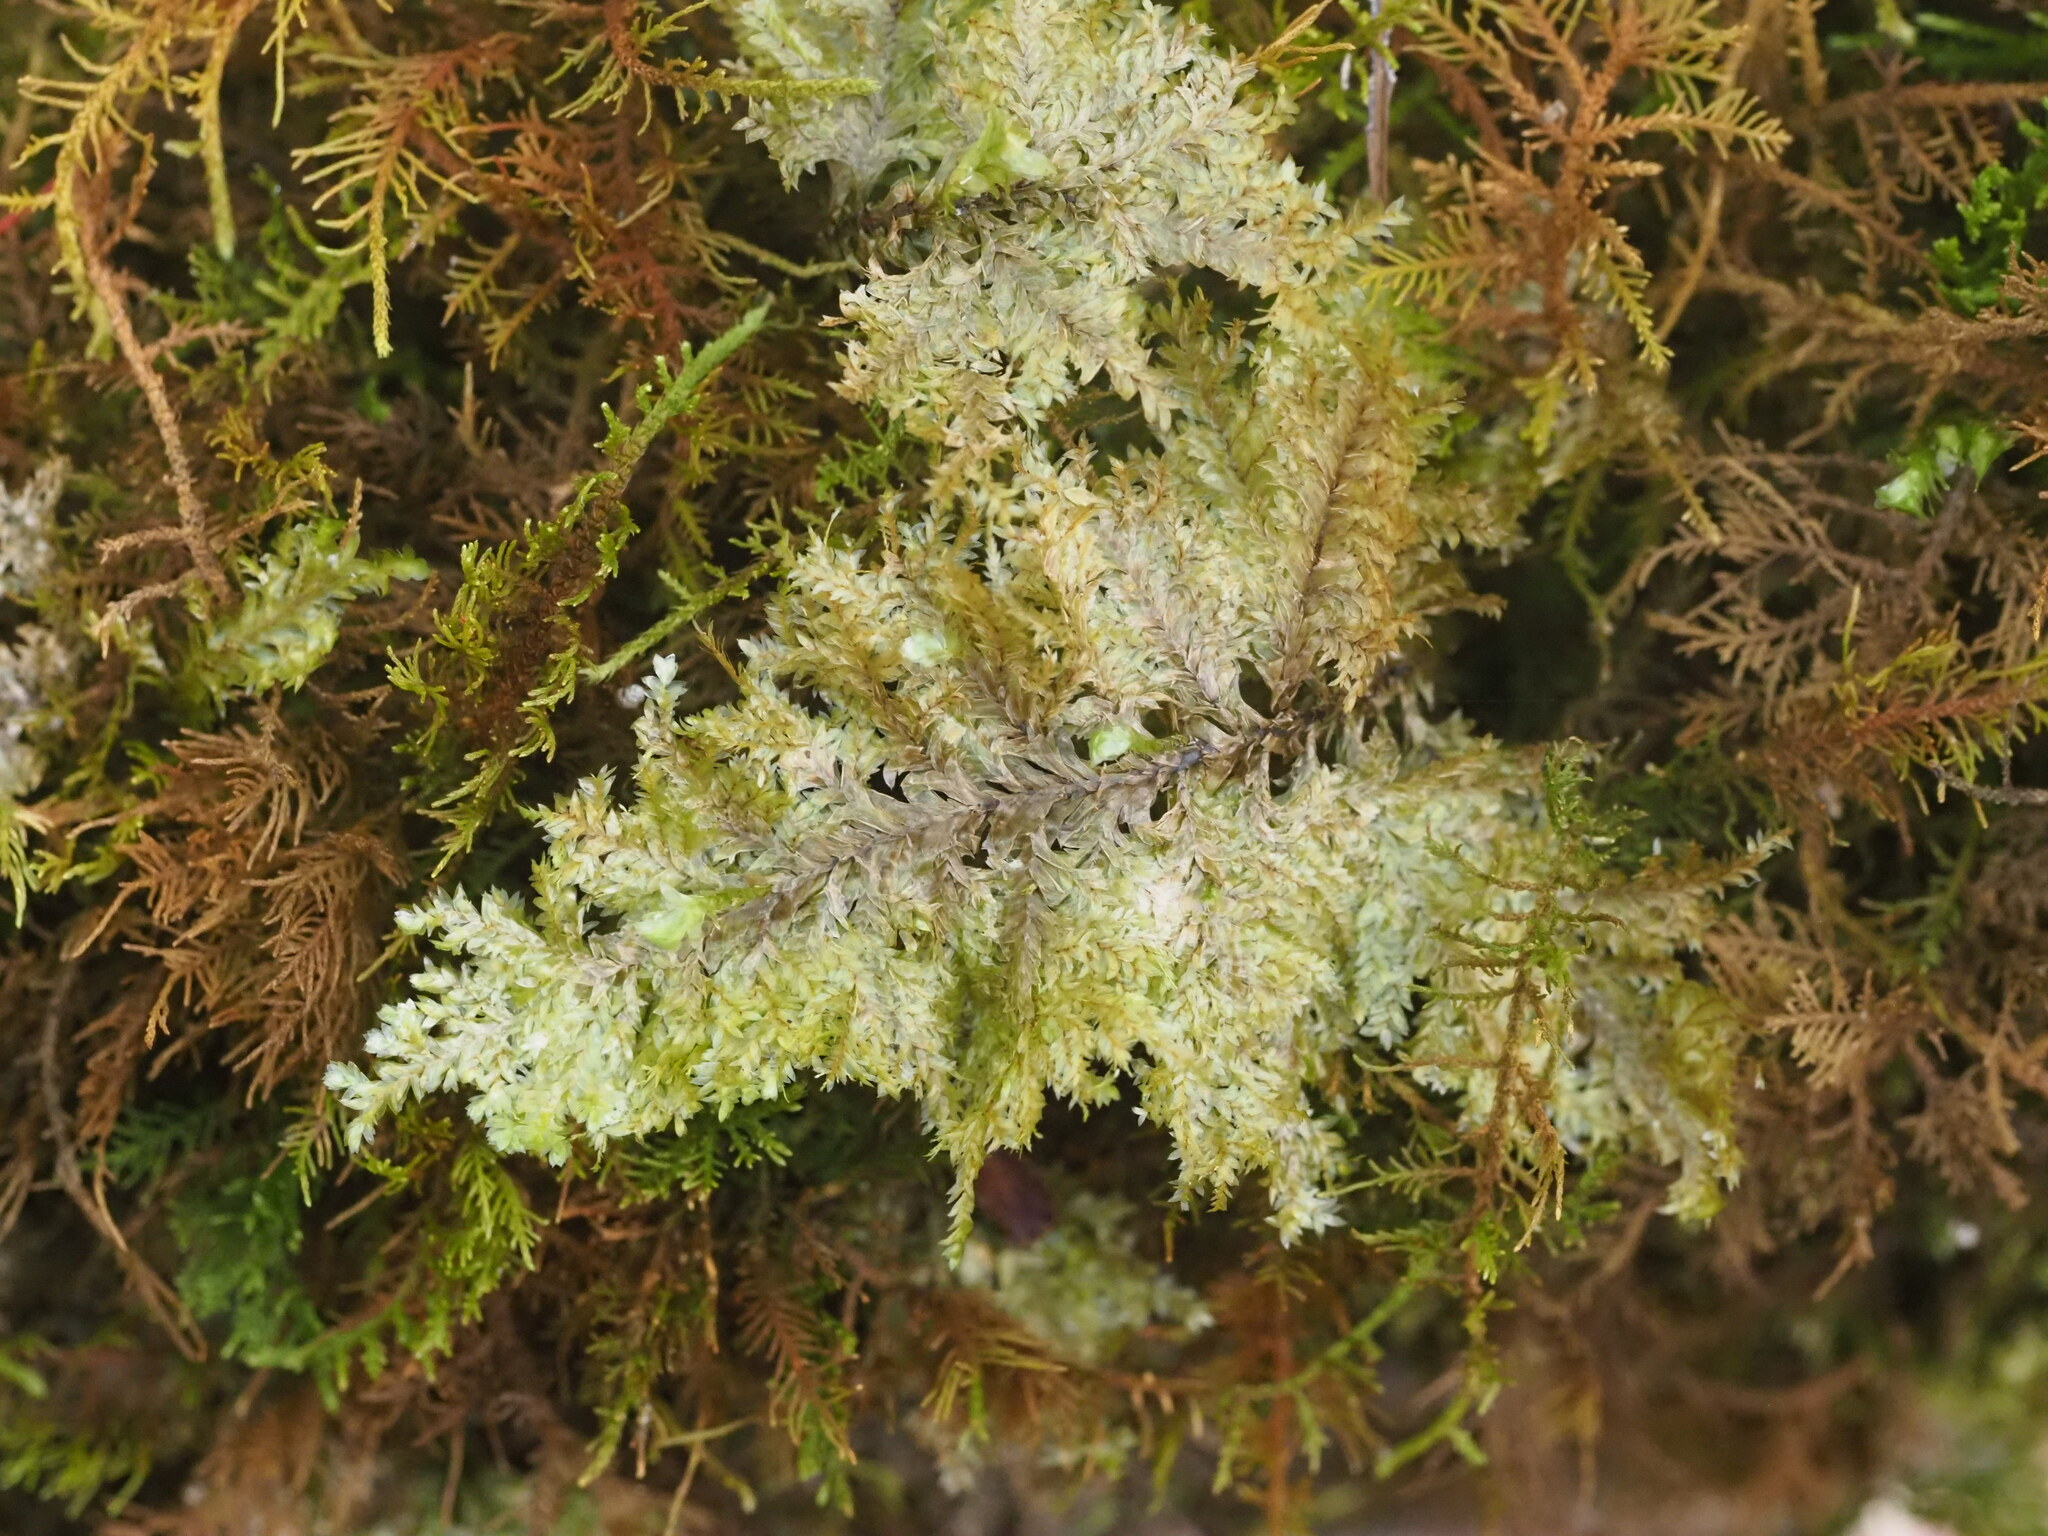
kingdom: Plantae
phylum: Bryophyta
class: Bryopsida
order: Hypnales
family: Neckeraceae
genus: Homaliodendron
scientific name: Homaliodendron flabellatum
